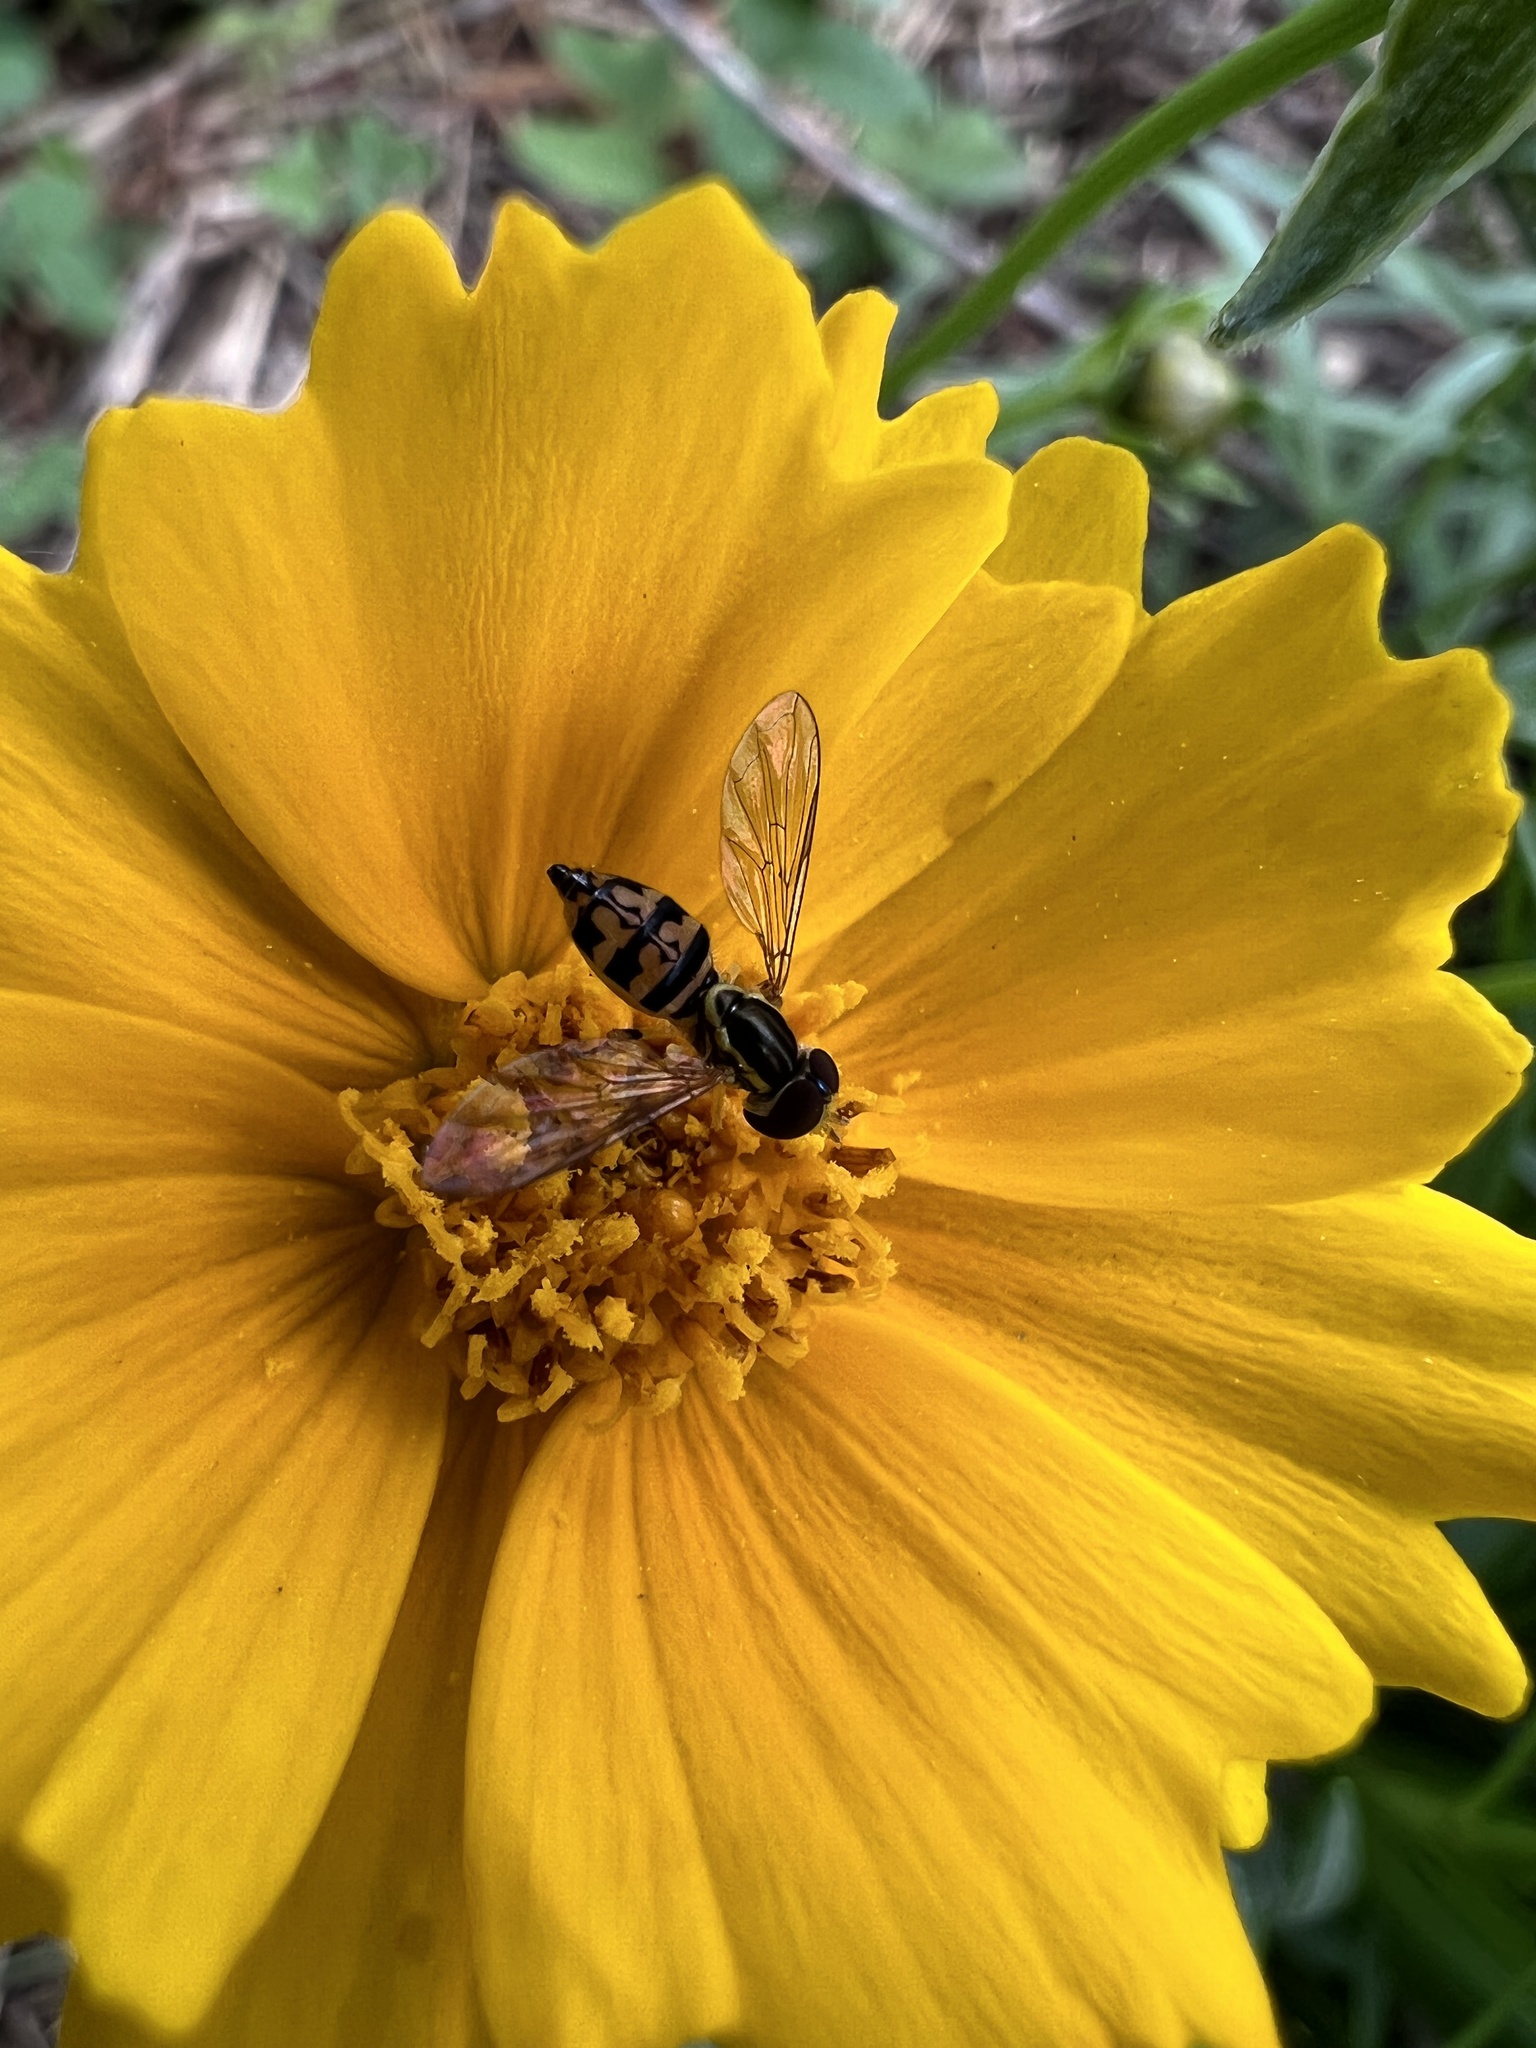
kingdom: Animalia
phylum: Arthropoda
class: Insecta
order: Diptera
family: Syrphidae
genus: Toxomerus
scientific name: Toxomerus geminatus
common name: Eastern calligrapher
